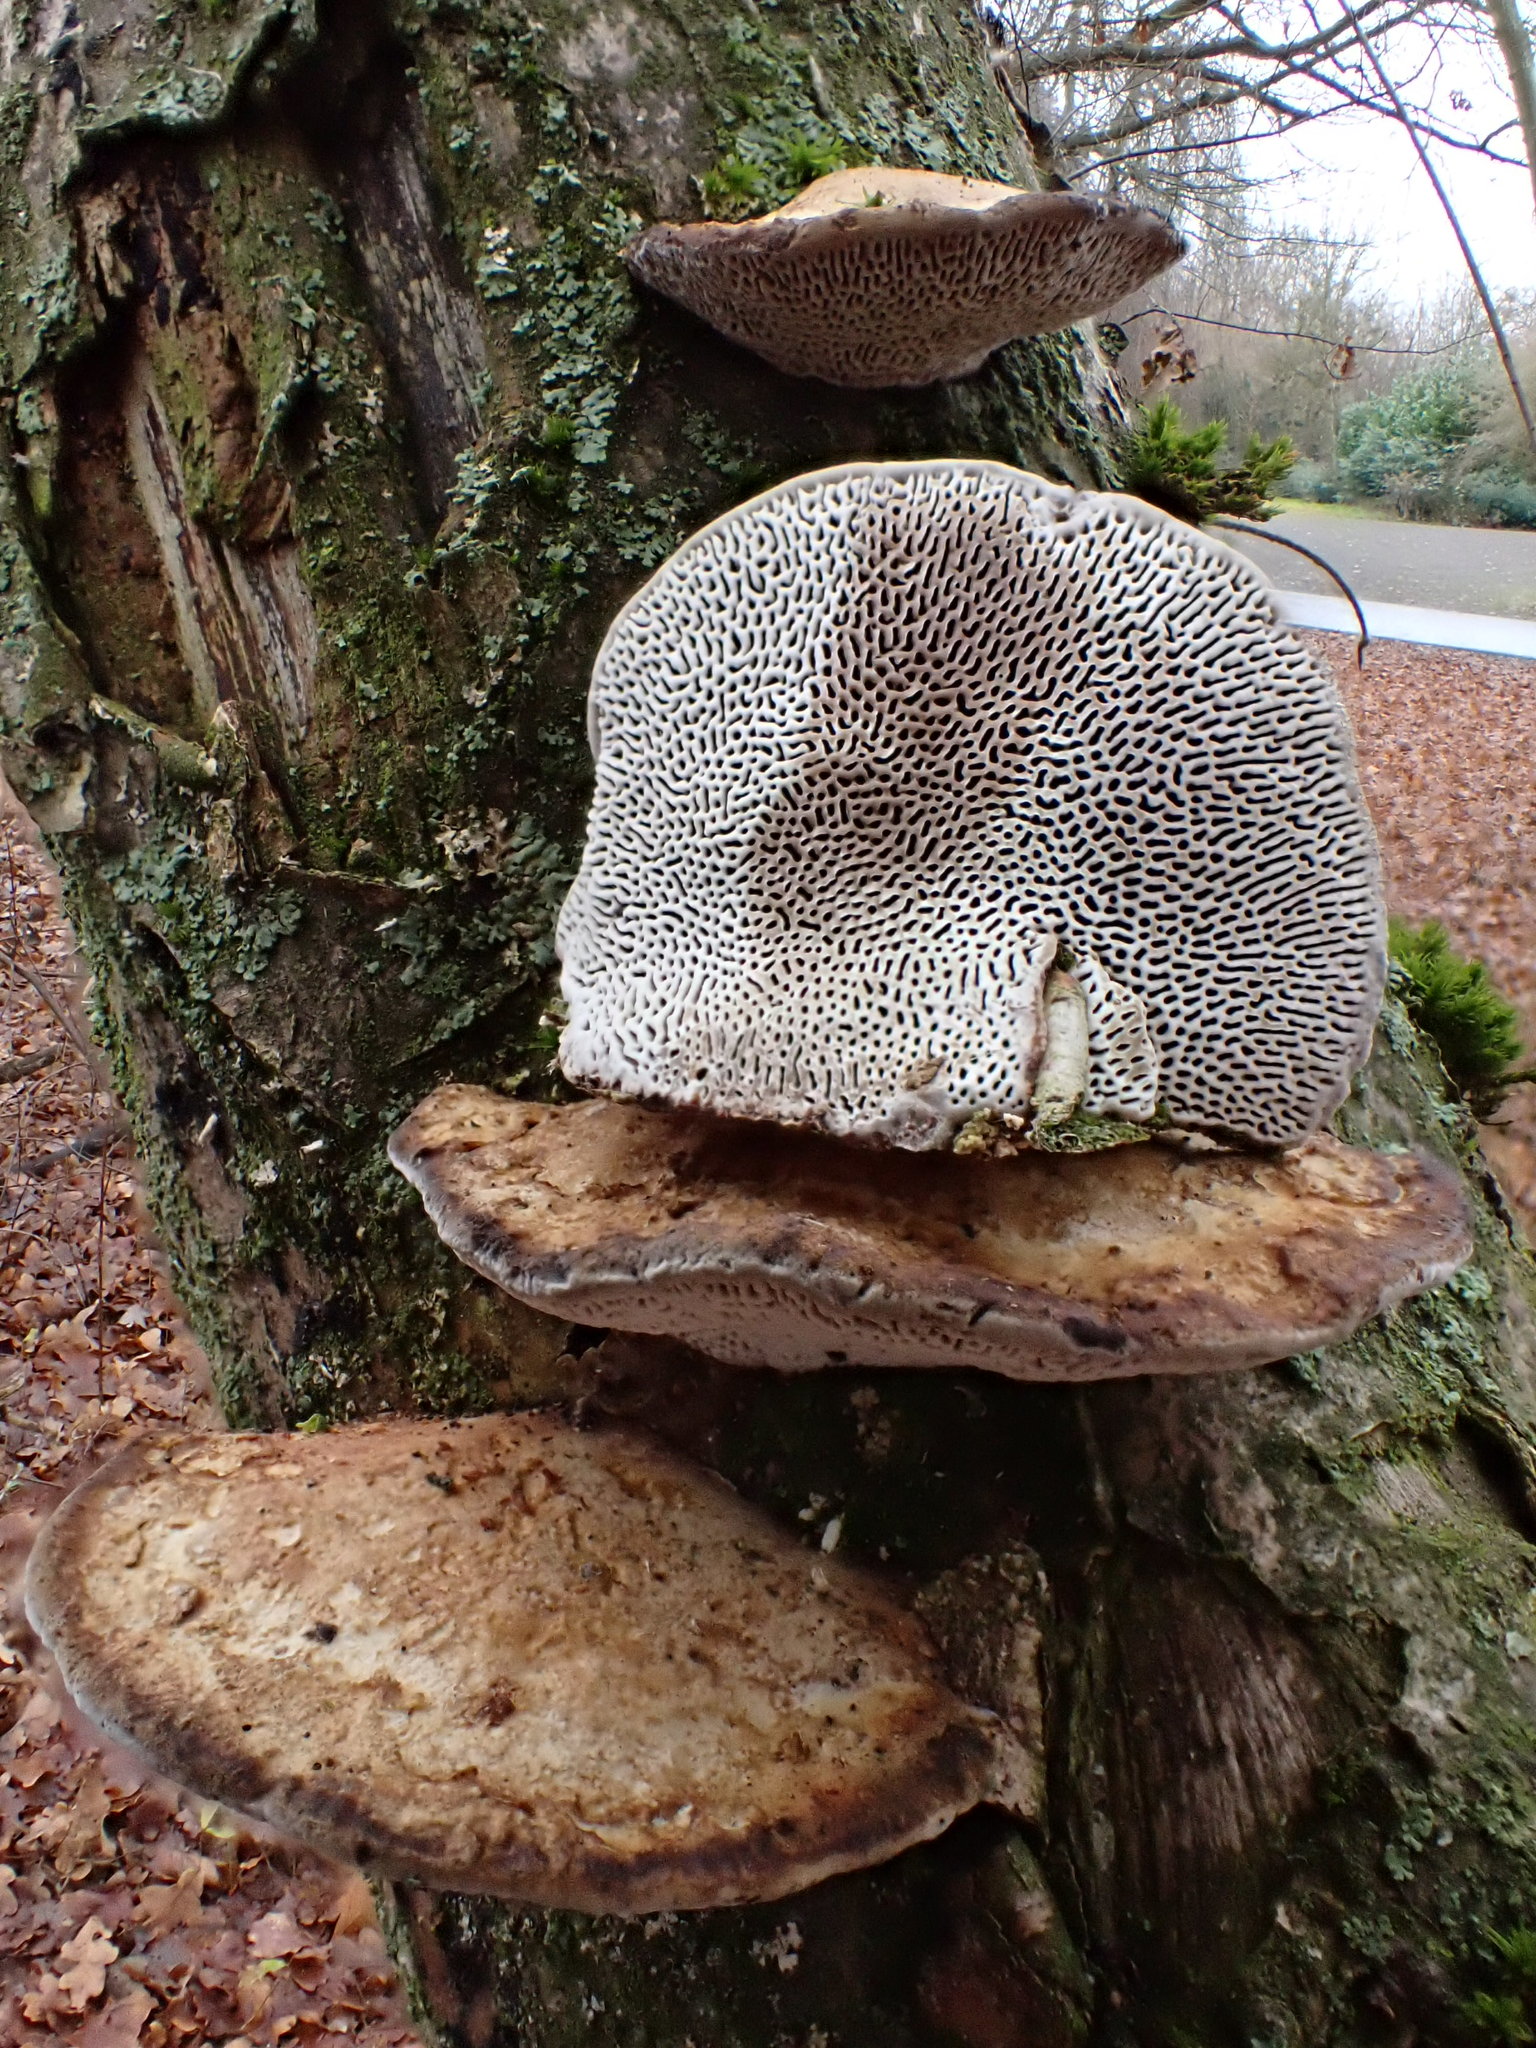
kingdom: Fungi
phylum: Basidiomycota
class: Agaricomycetes
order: Polyporales
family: Polyporaceae
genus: Daedaleopsis
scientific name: Daedaleopsis confragosa
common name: Blushing bracket
